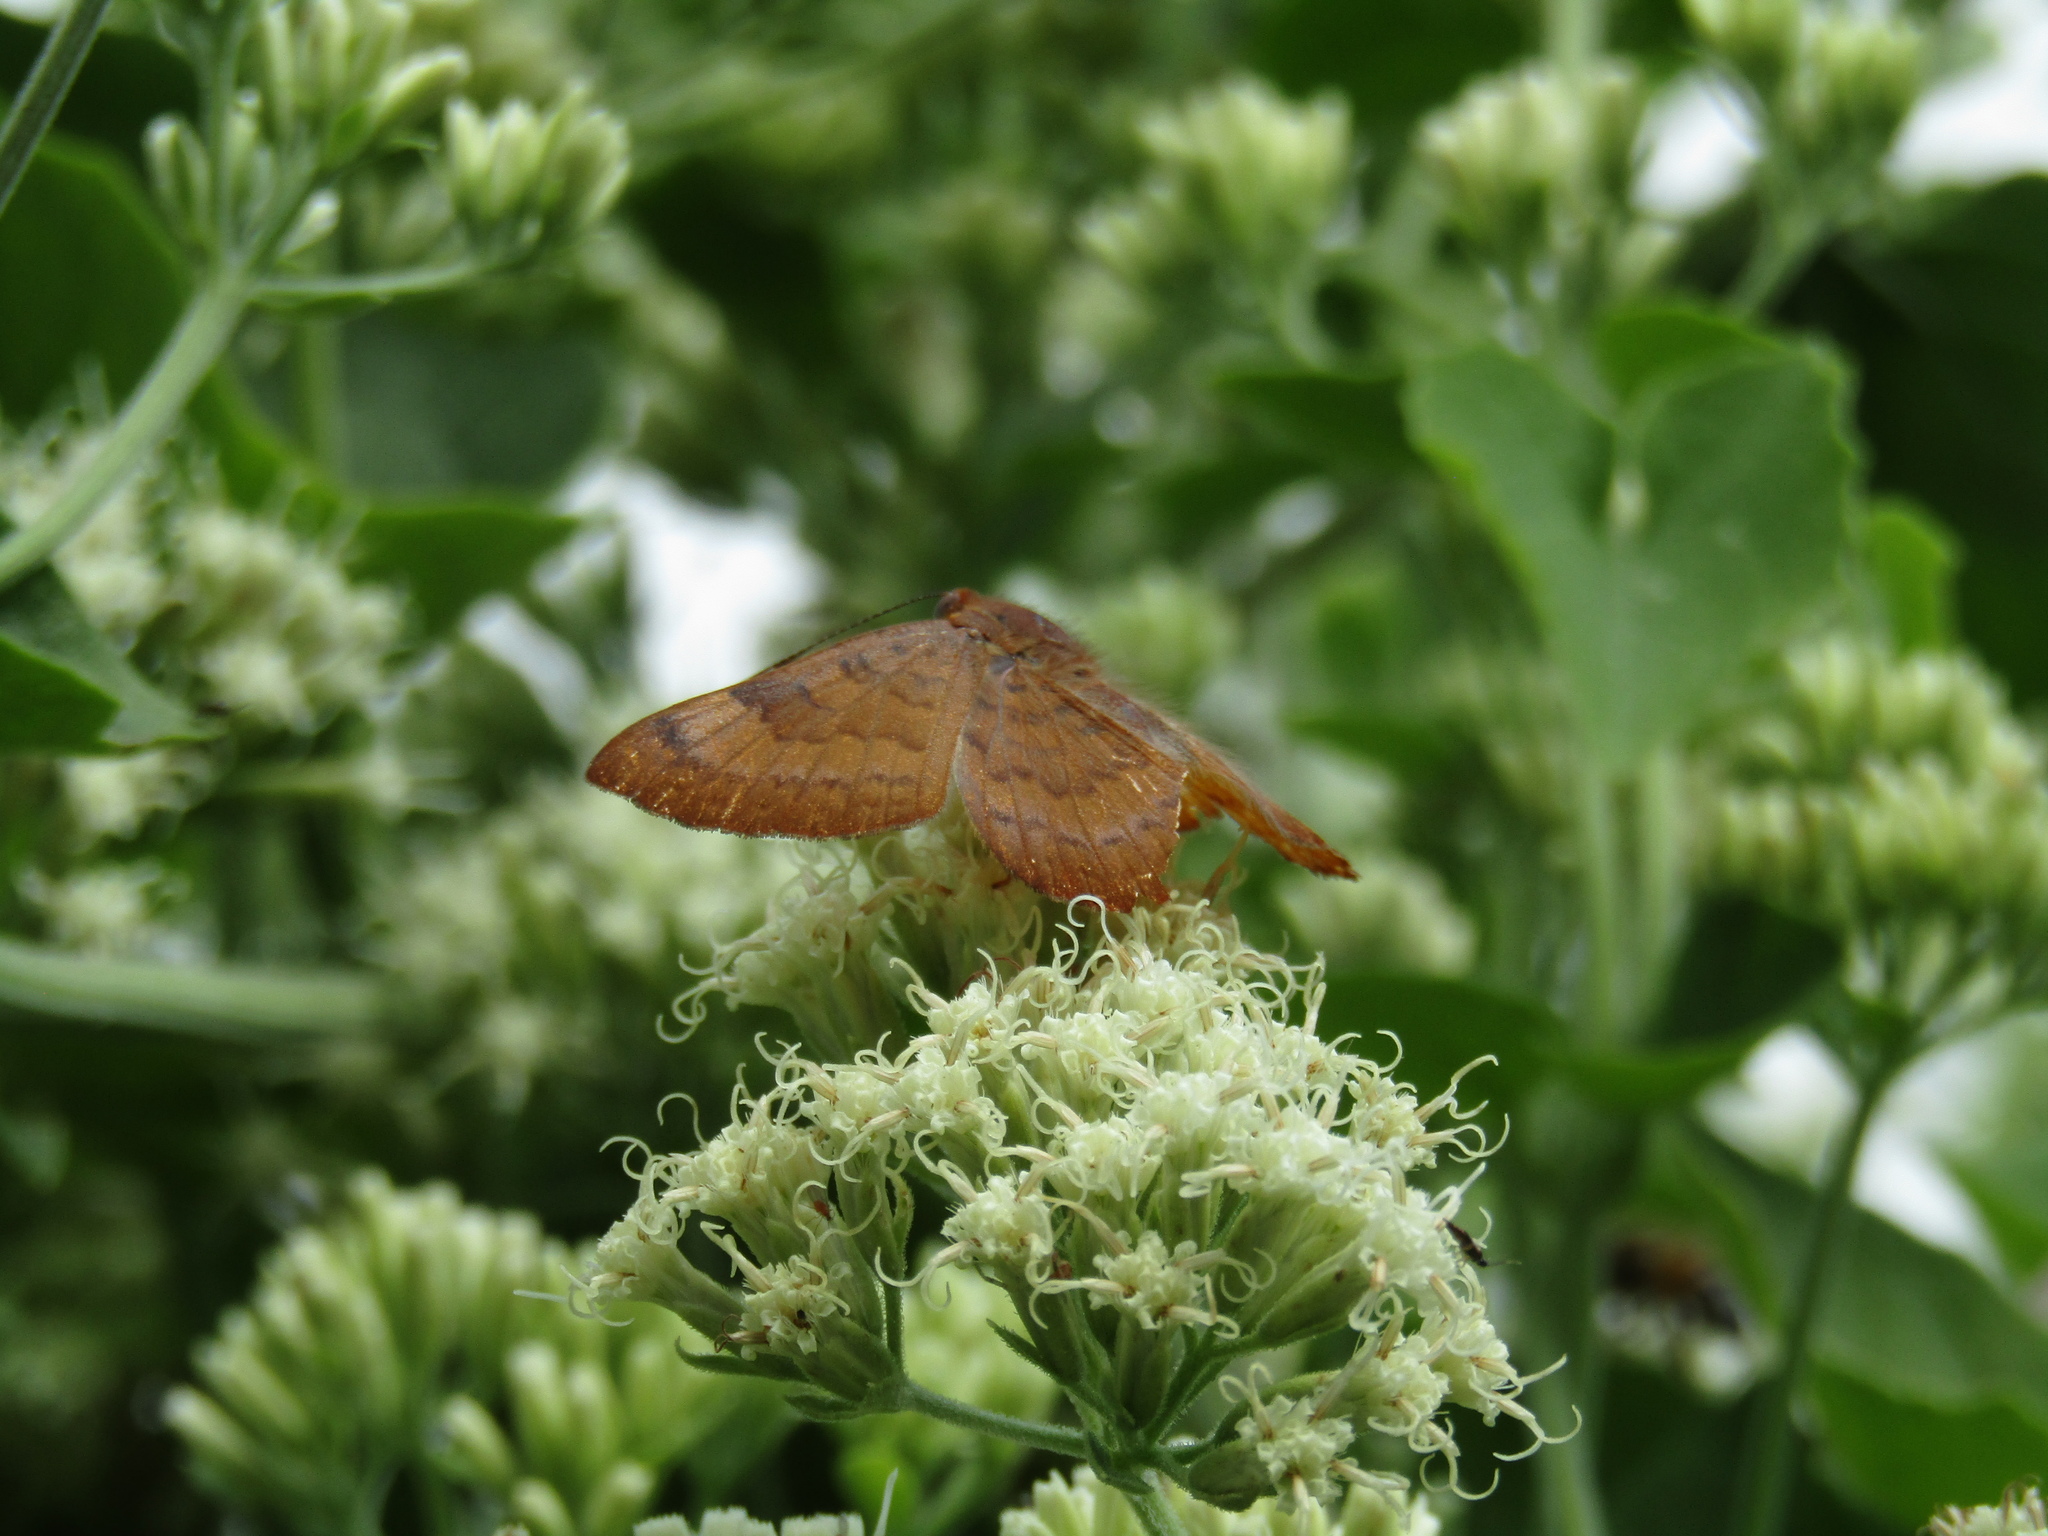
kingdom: Animalia
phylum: Arthropoda
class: Insecta
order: Lepidoptera
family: Lycaenidae
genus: Emesis
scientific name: Emesis russula
